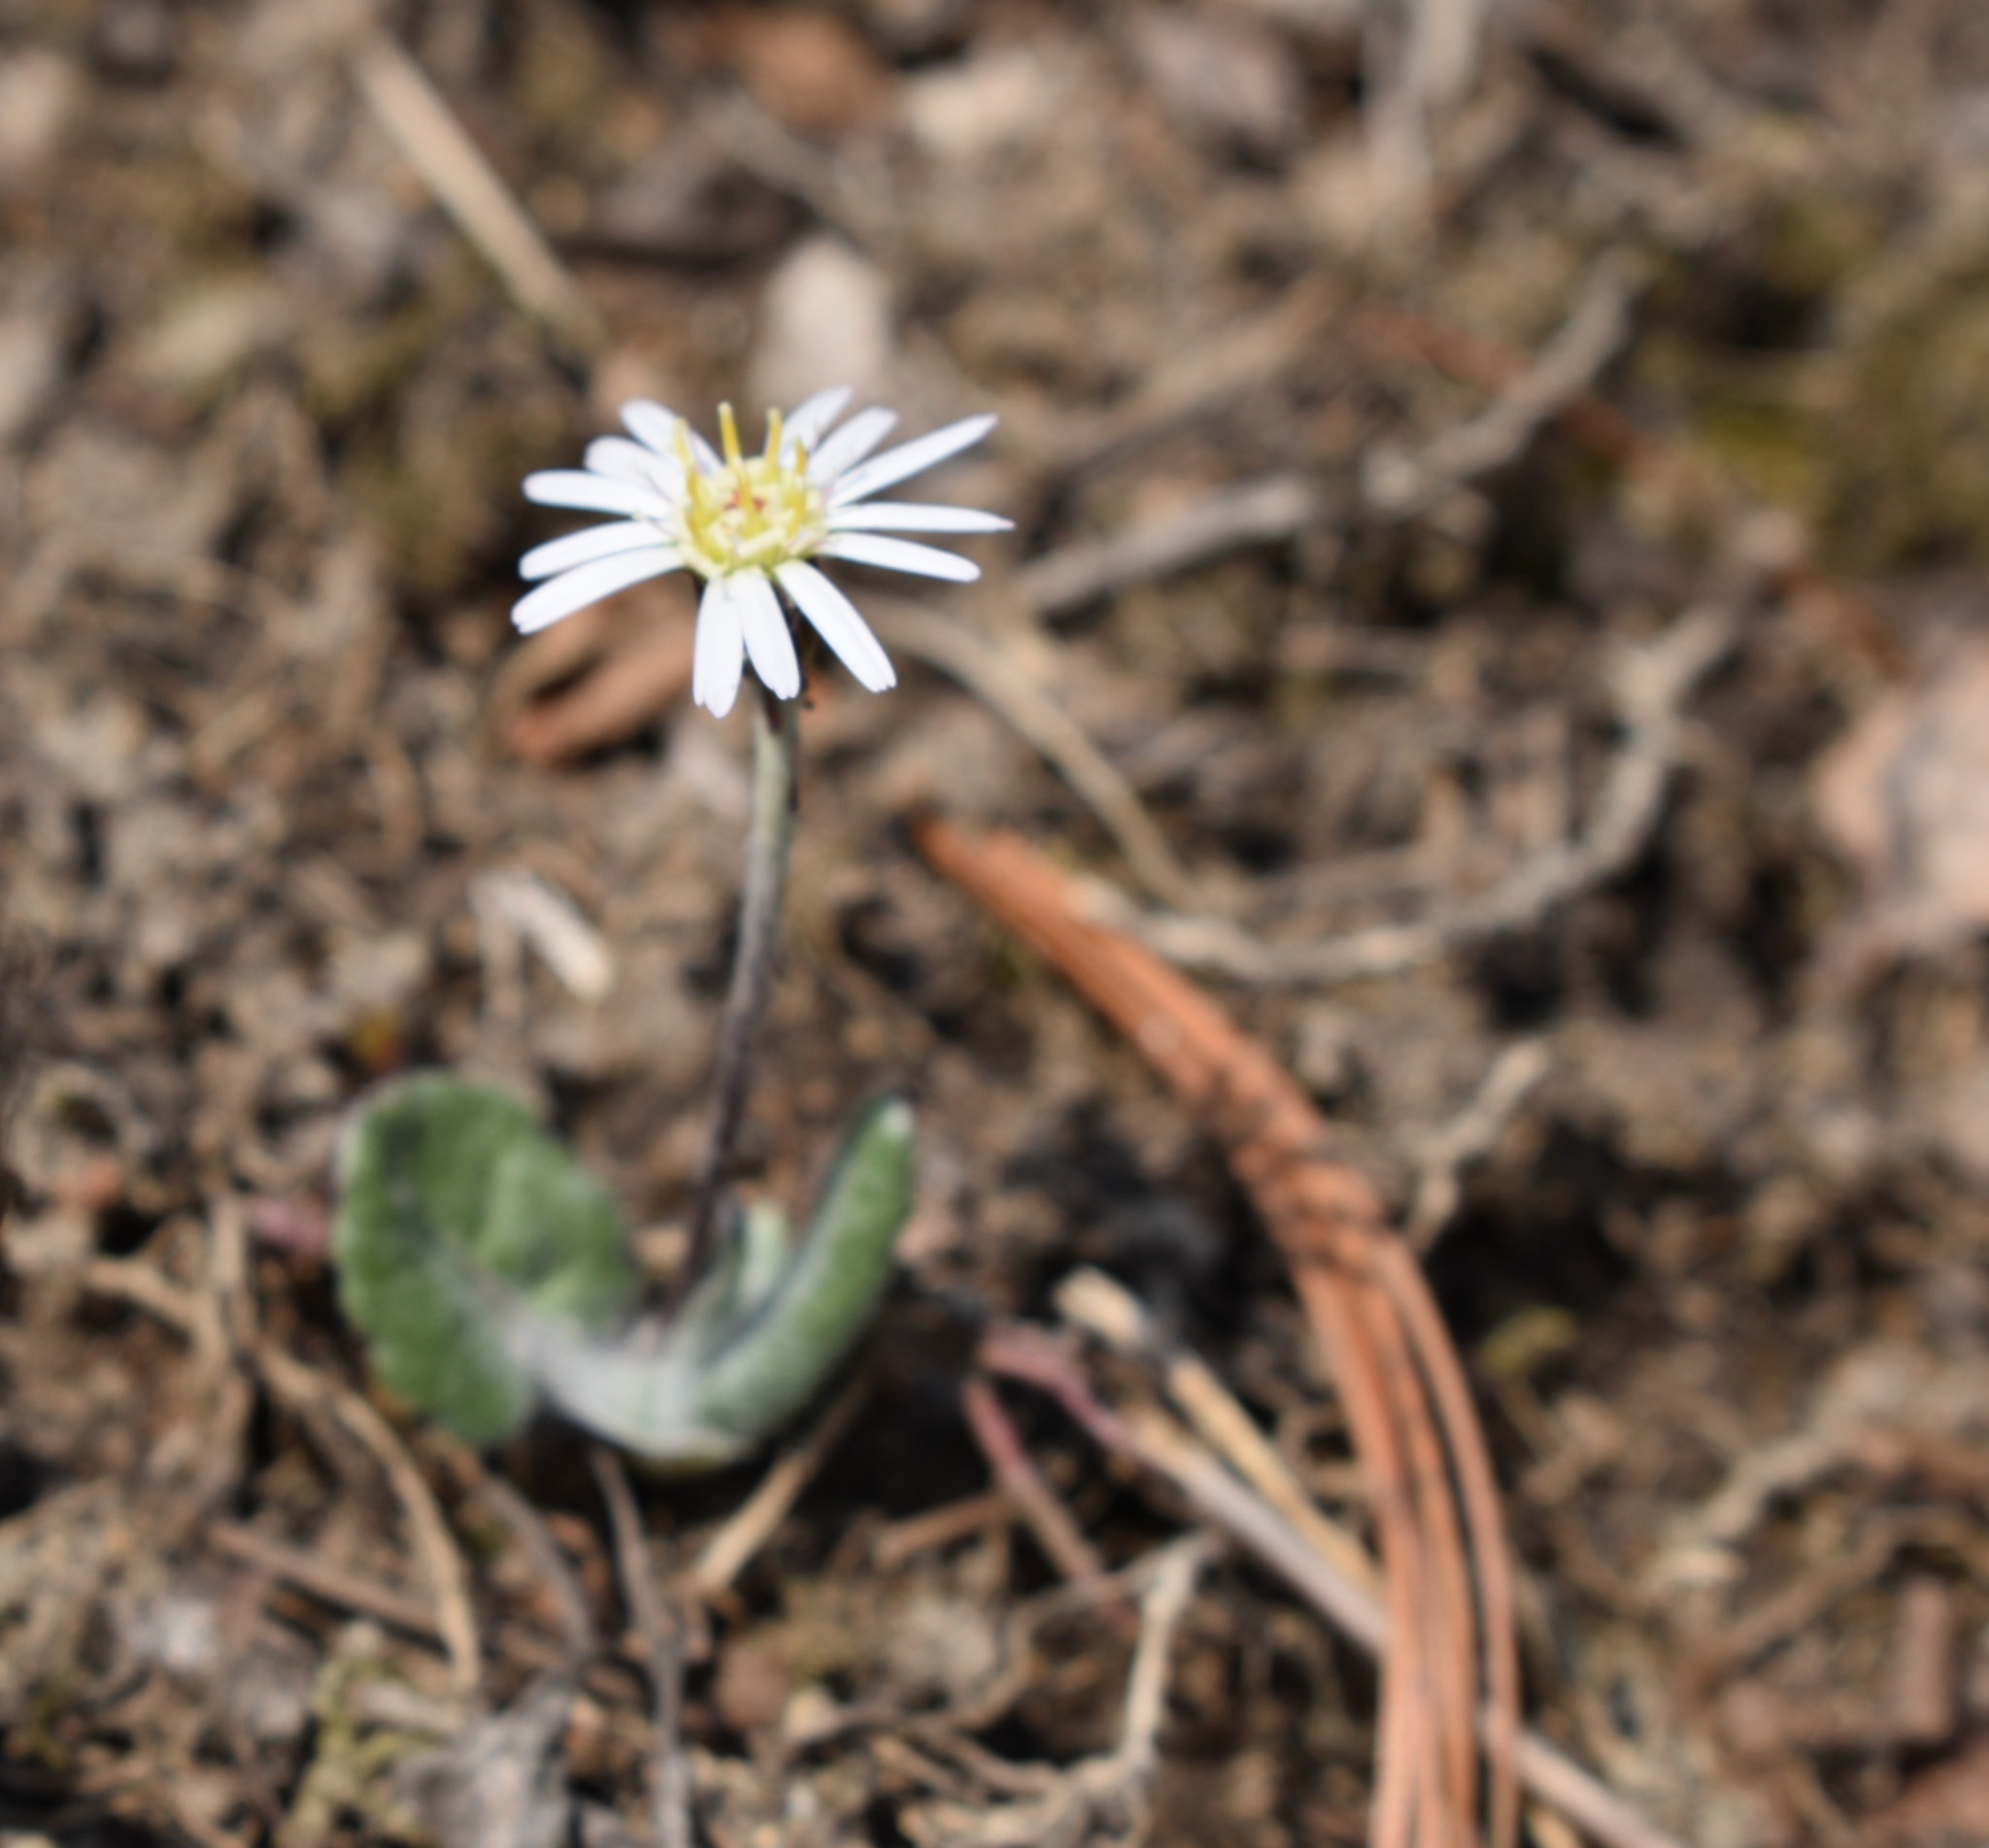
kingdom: Plantae
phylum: Tracheophyta
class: Magnoliopsida
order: Asterales
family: Asteraceae
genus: Leibnitzia
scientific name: Leibnitzia anandria
